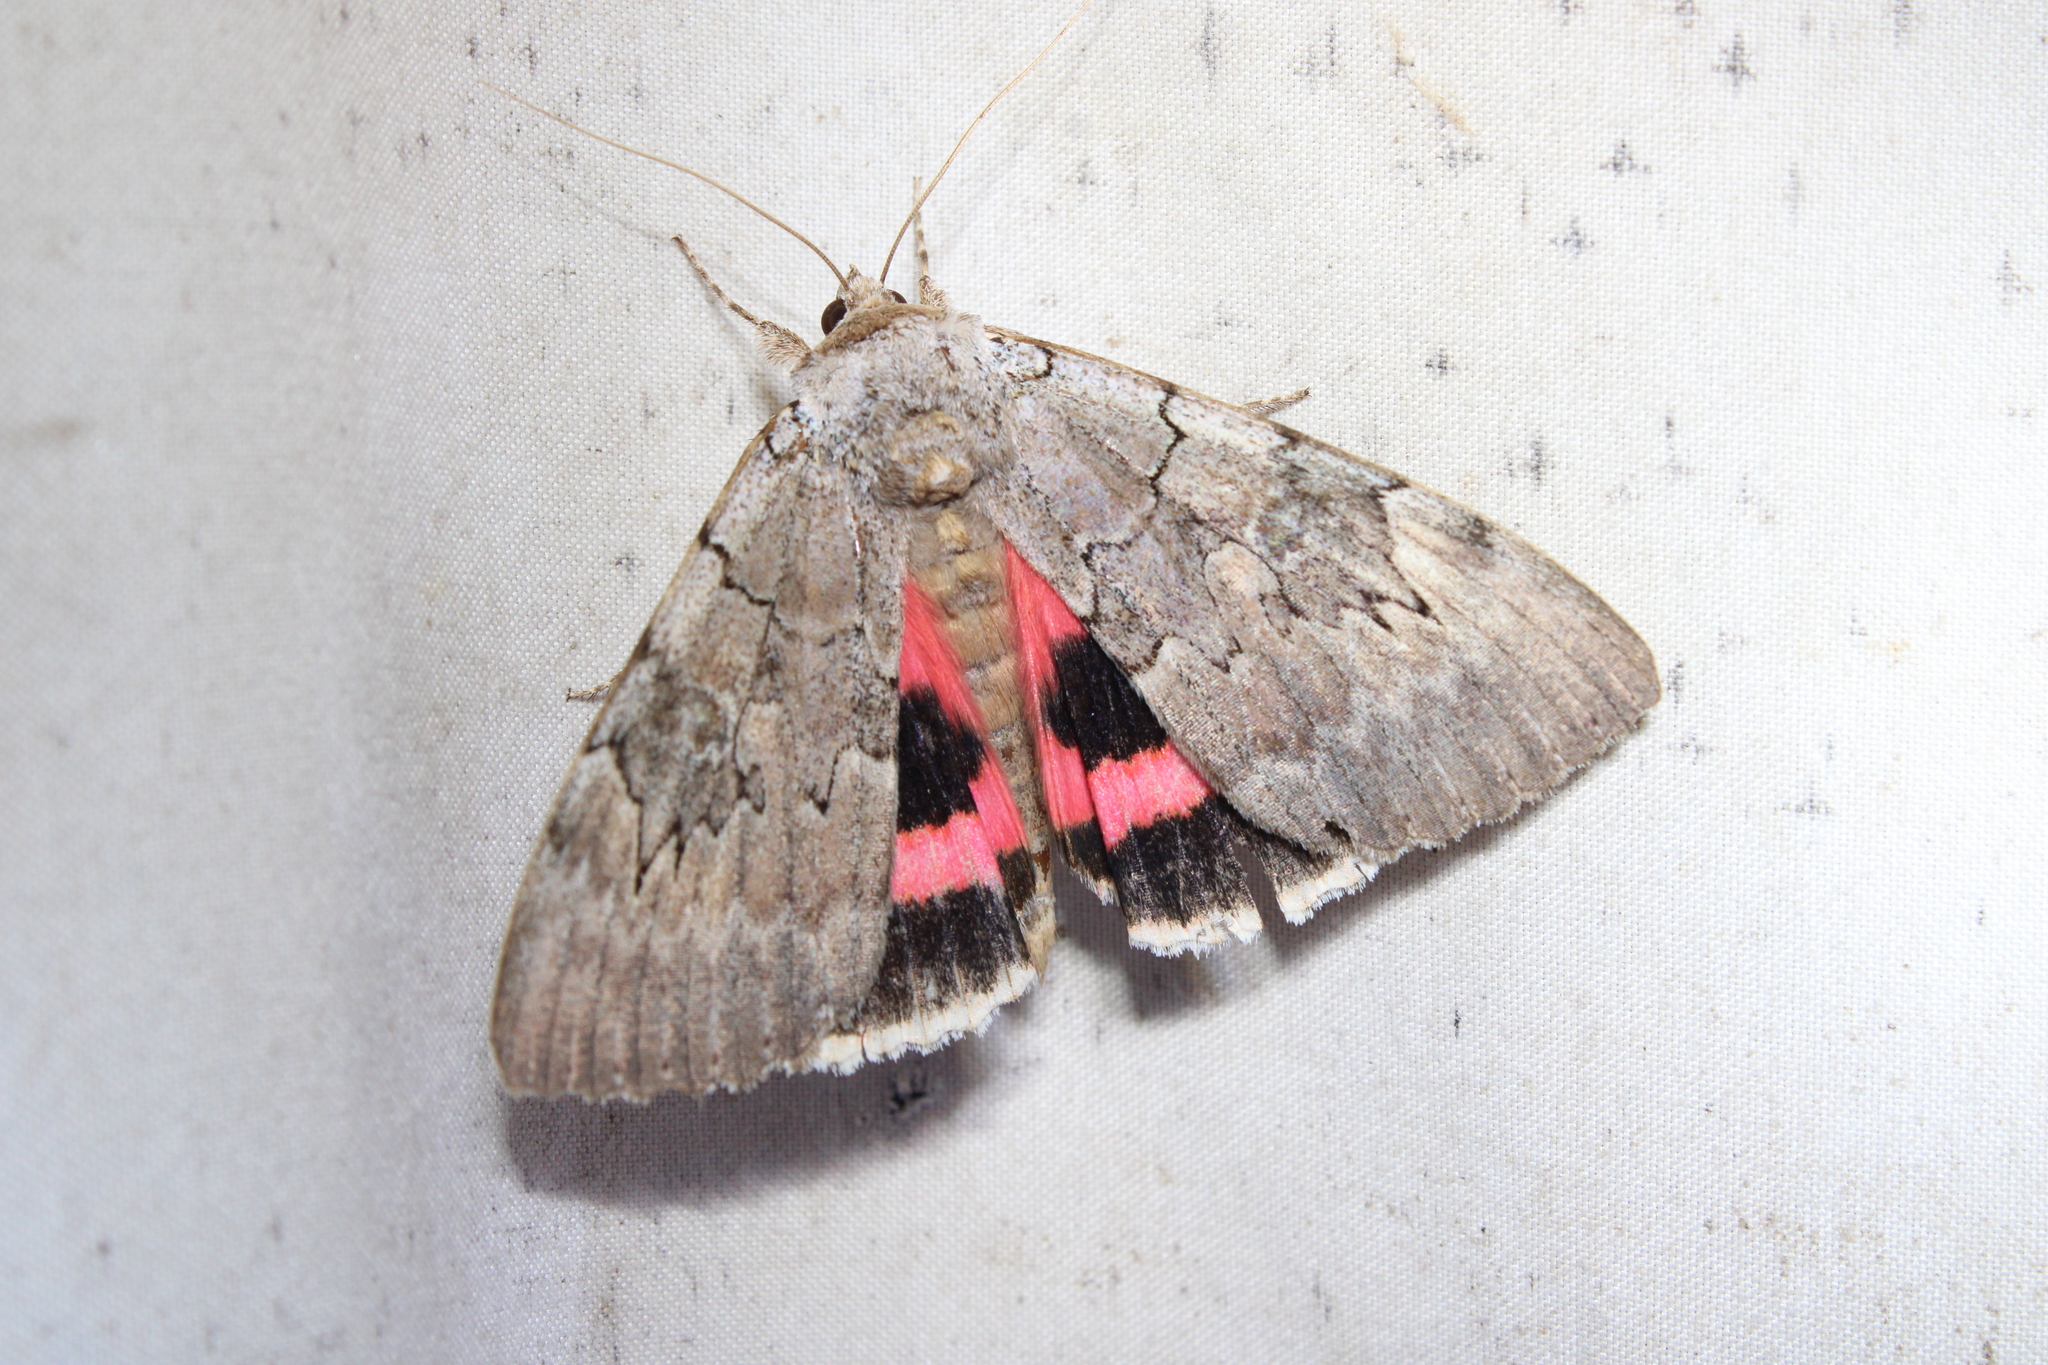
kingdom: Animalia
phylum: Arthropoda
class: Insecta
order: Lepidoptera
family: Erebidae
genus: Catocala
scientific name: Catocala concumbens
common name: Pink underwing
